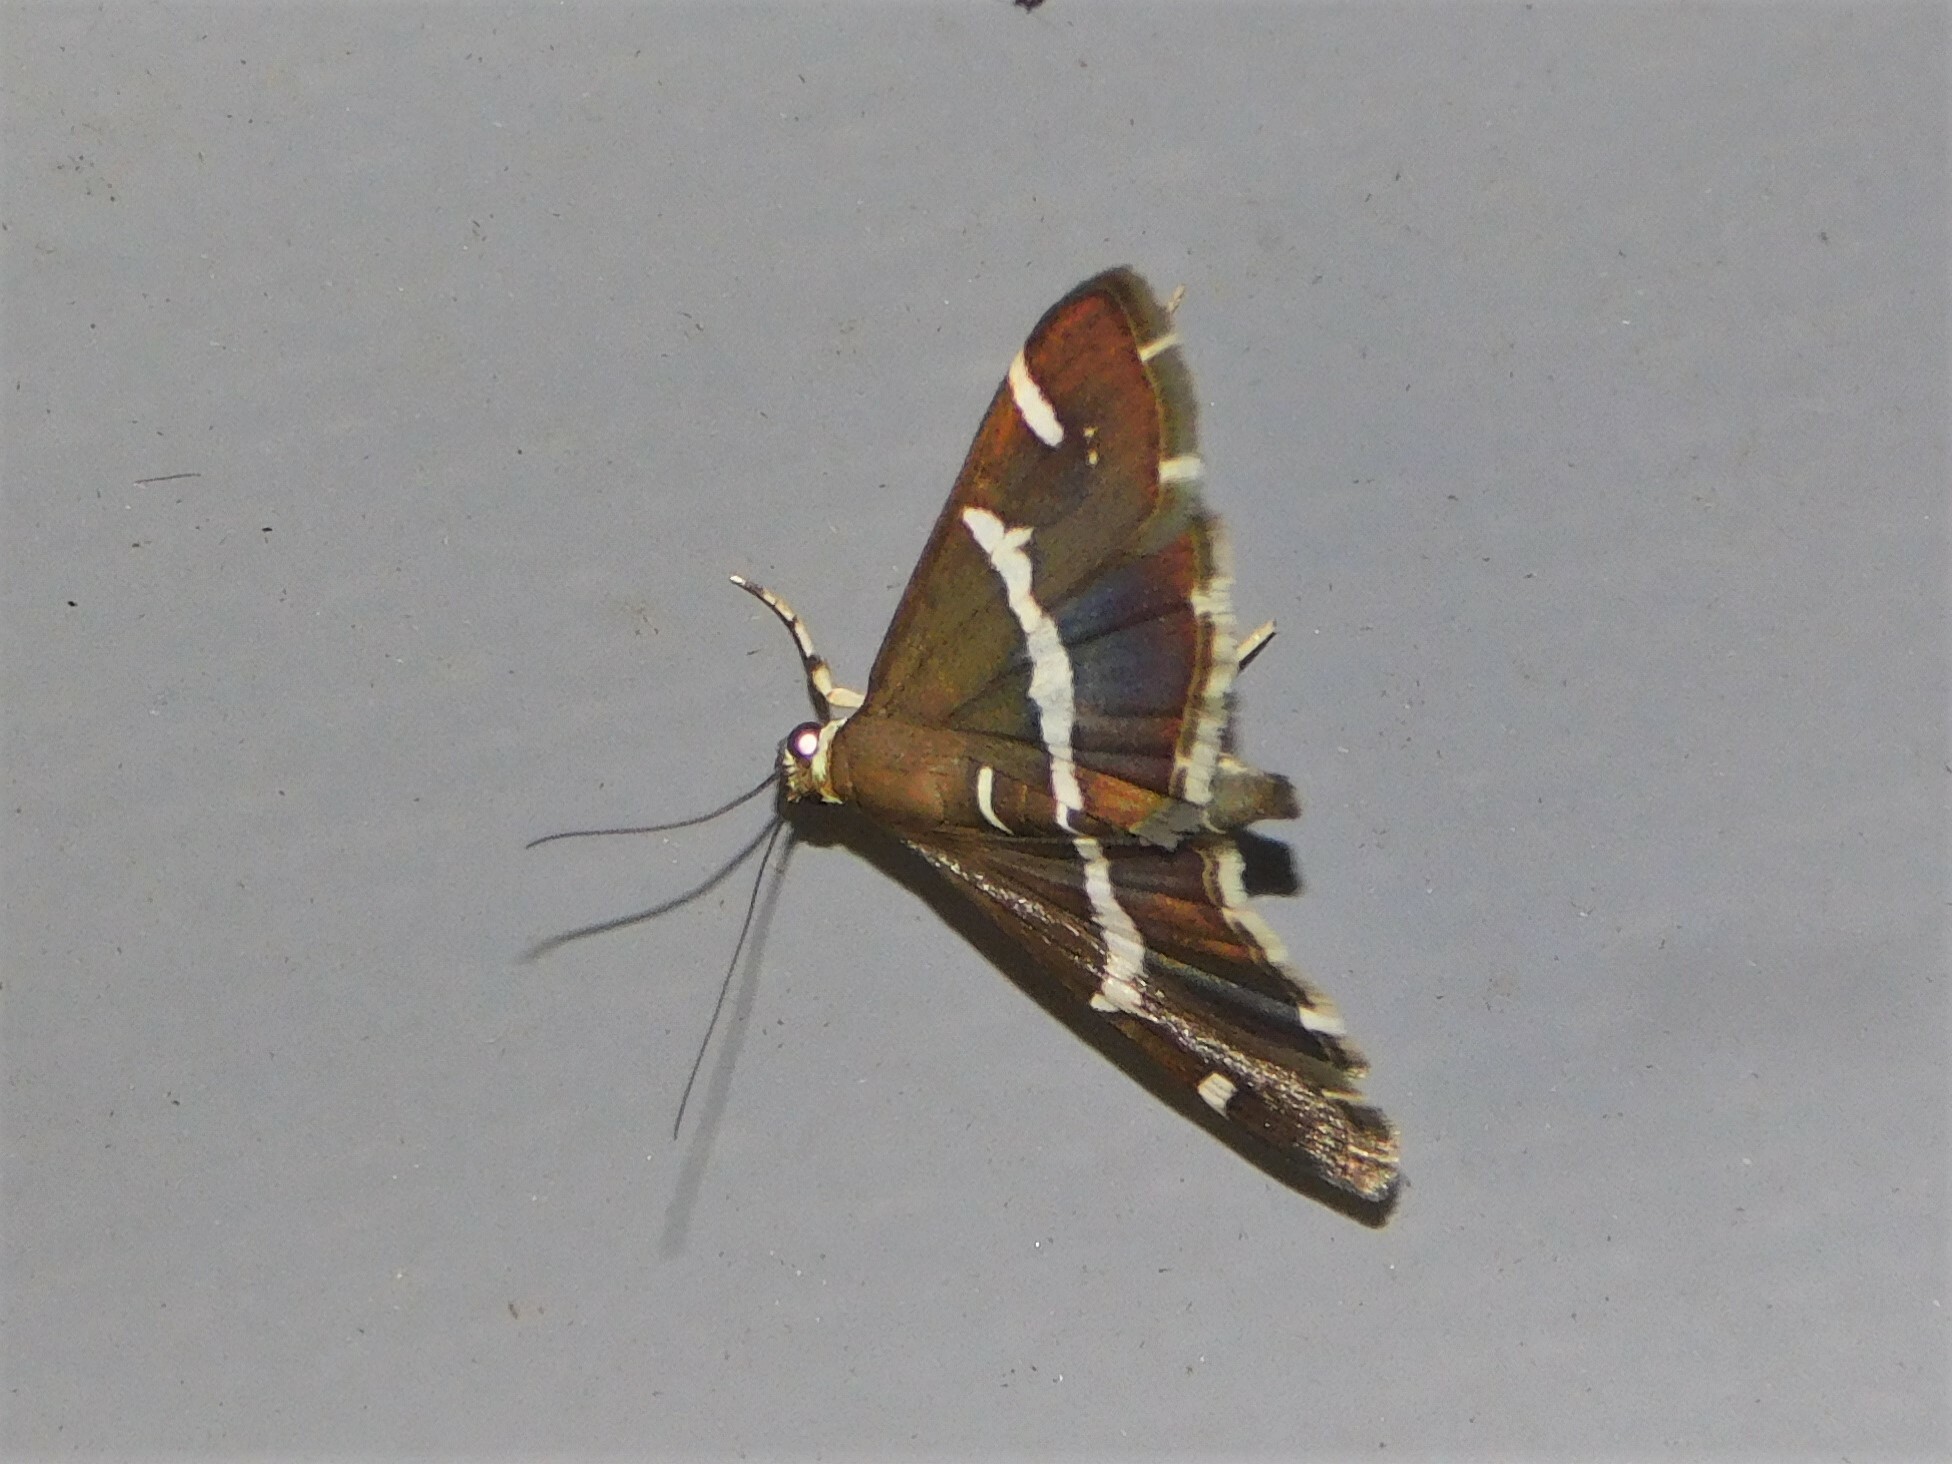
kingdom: Animalia
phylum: Arthropoda
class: Insecta
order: Lepidoptera
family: Crambidae
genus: Spoladea
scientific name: Spoladea recurvalis
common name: Beet webworm moth
